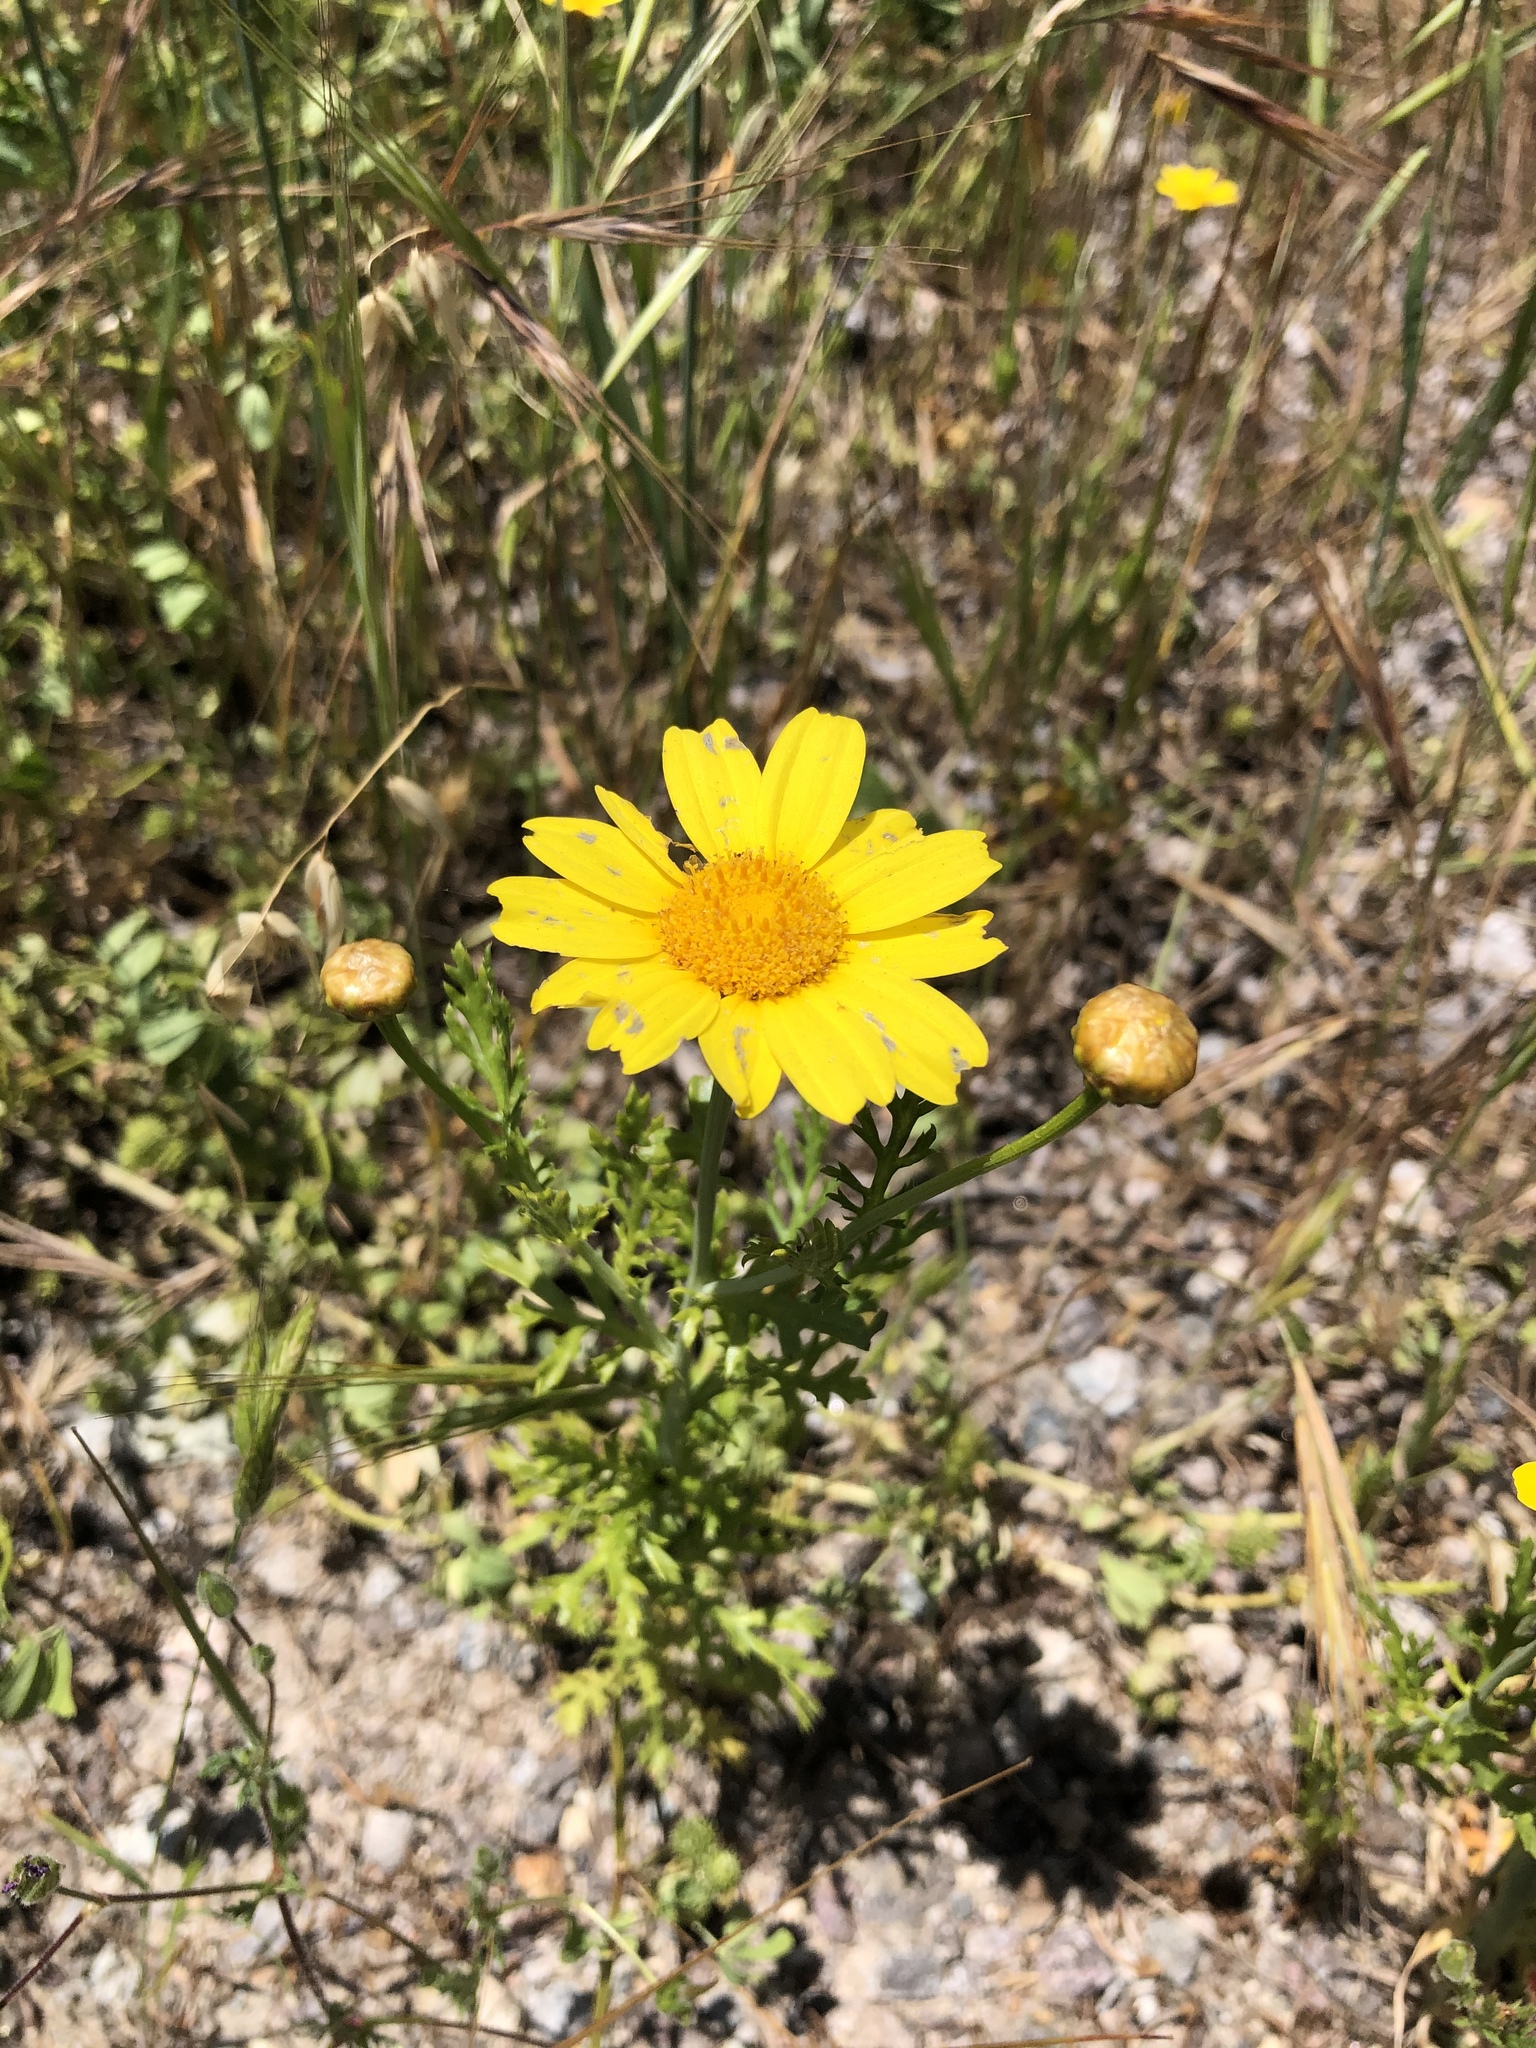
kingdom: Plantae
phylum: Tracheophyta
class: Magnoliopsida
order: Asterales
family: Asteraceae
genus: Glebionis
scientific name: Glebionis coronaria
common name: Crowndaisy
